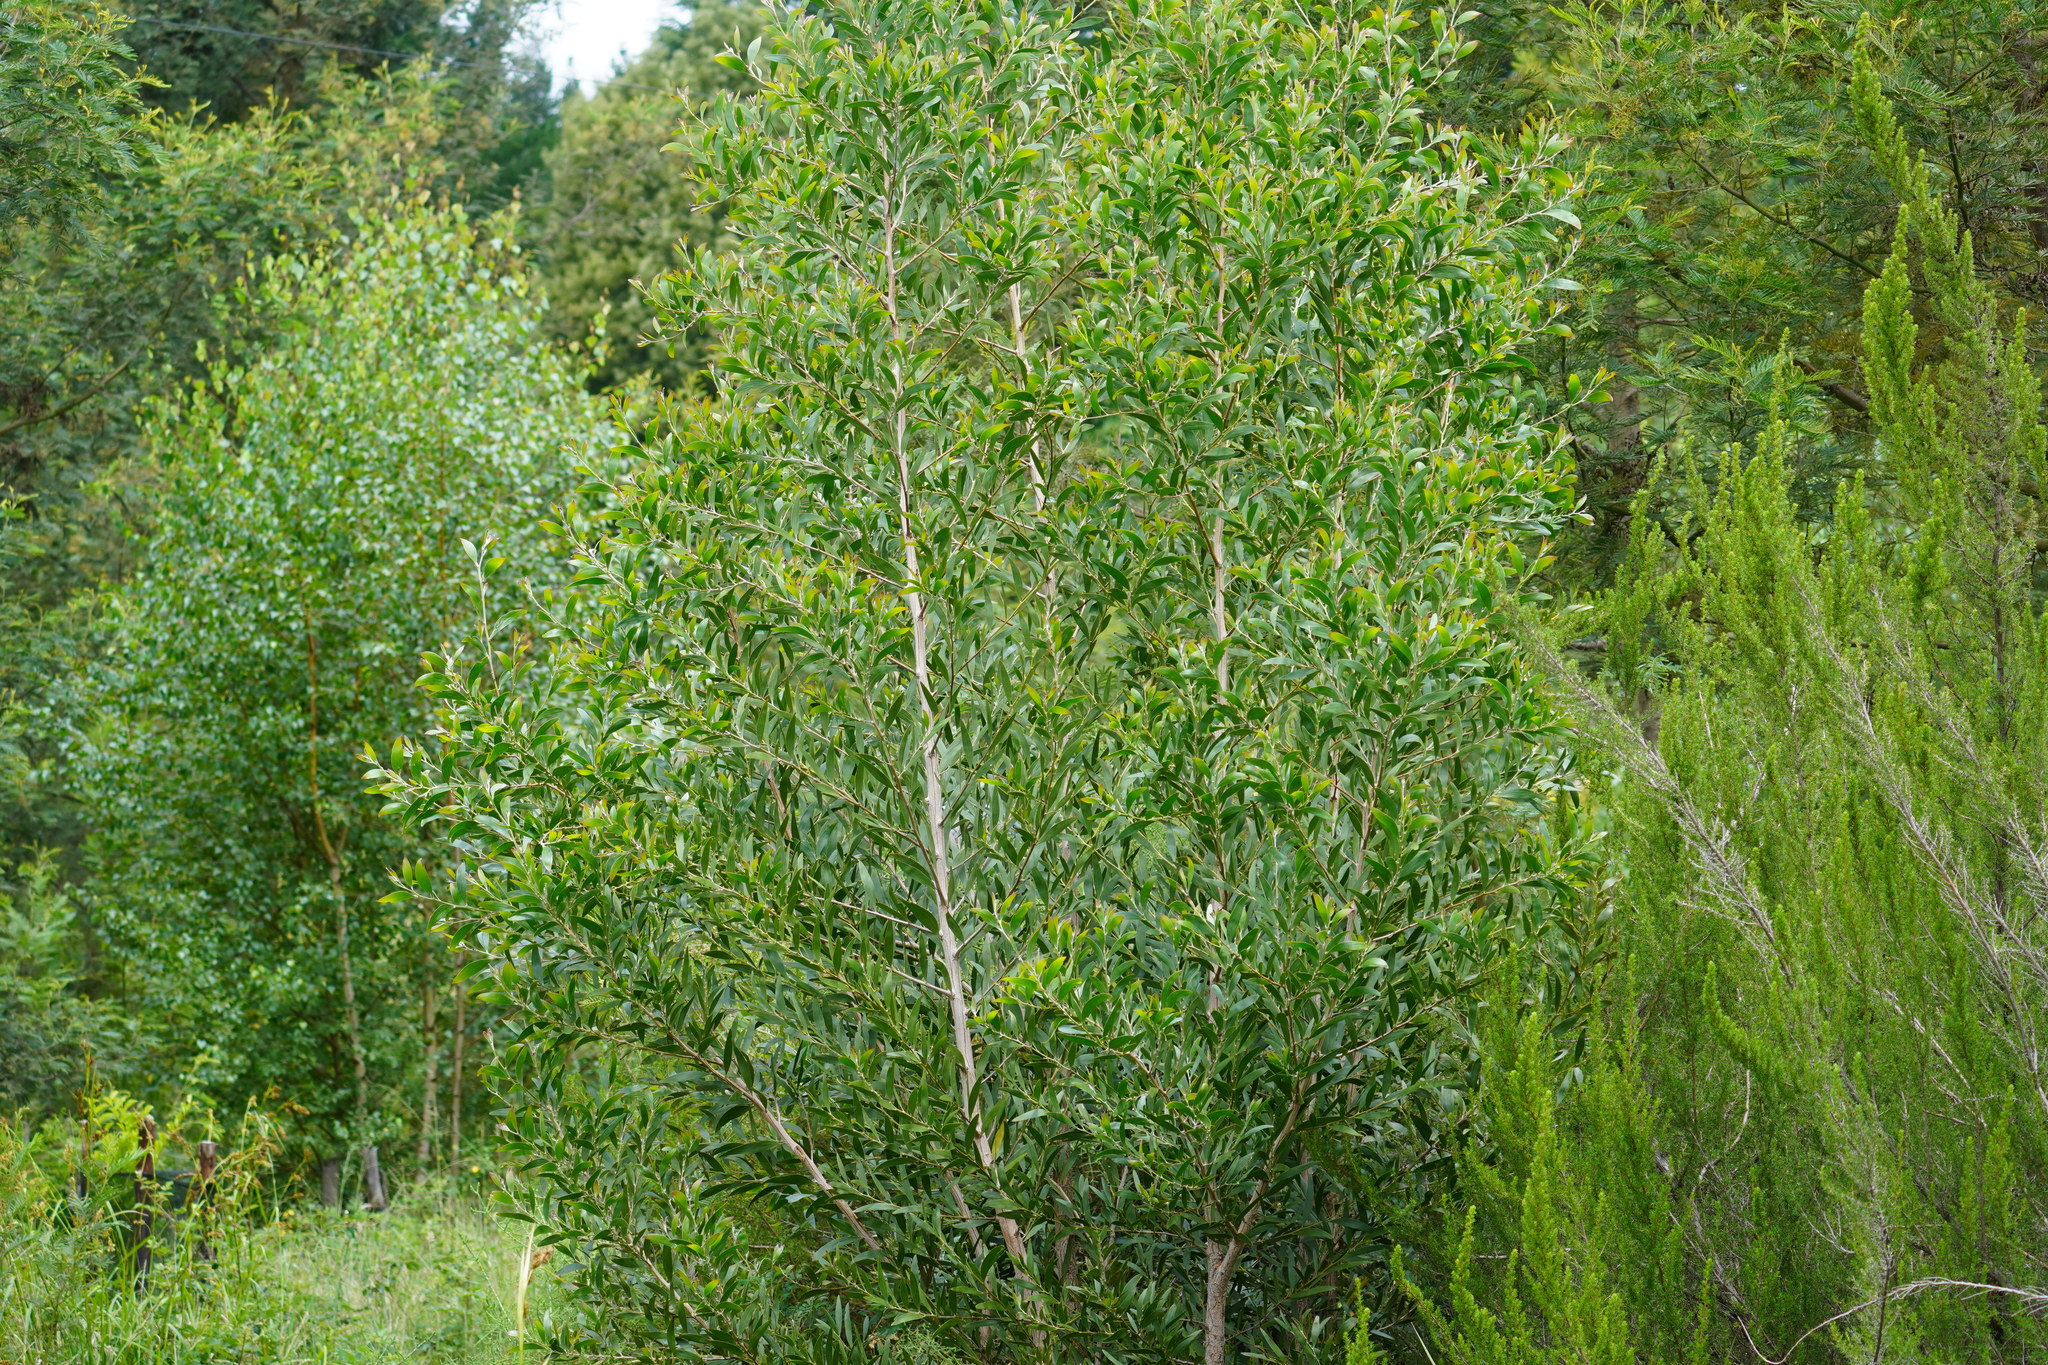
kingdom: Plantae
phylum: Tracheophyta
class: Magnoliopsida
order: Fabales
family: Fabaceae
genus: Acacia
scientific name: Acacia melanoxylon
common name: Blackwood
